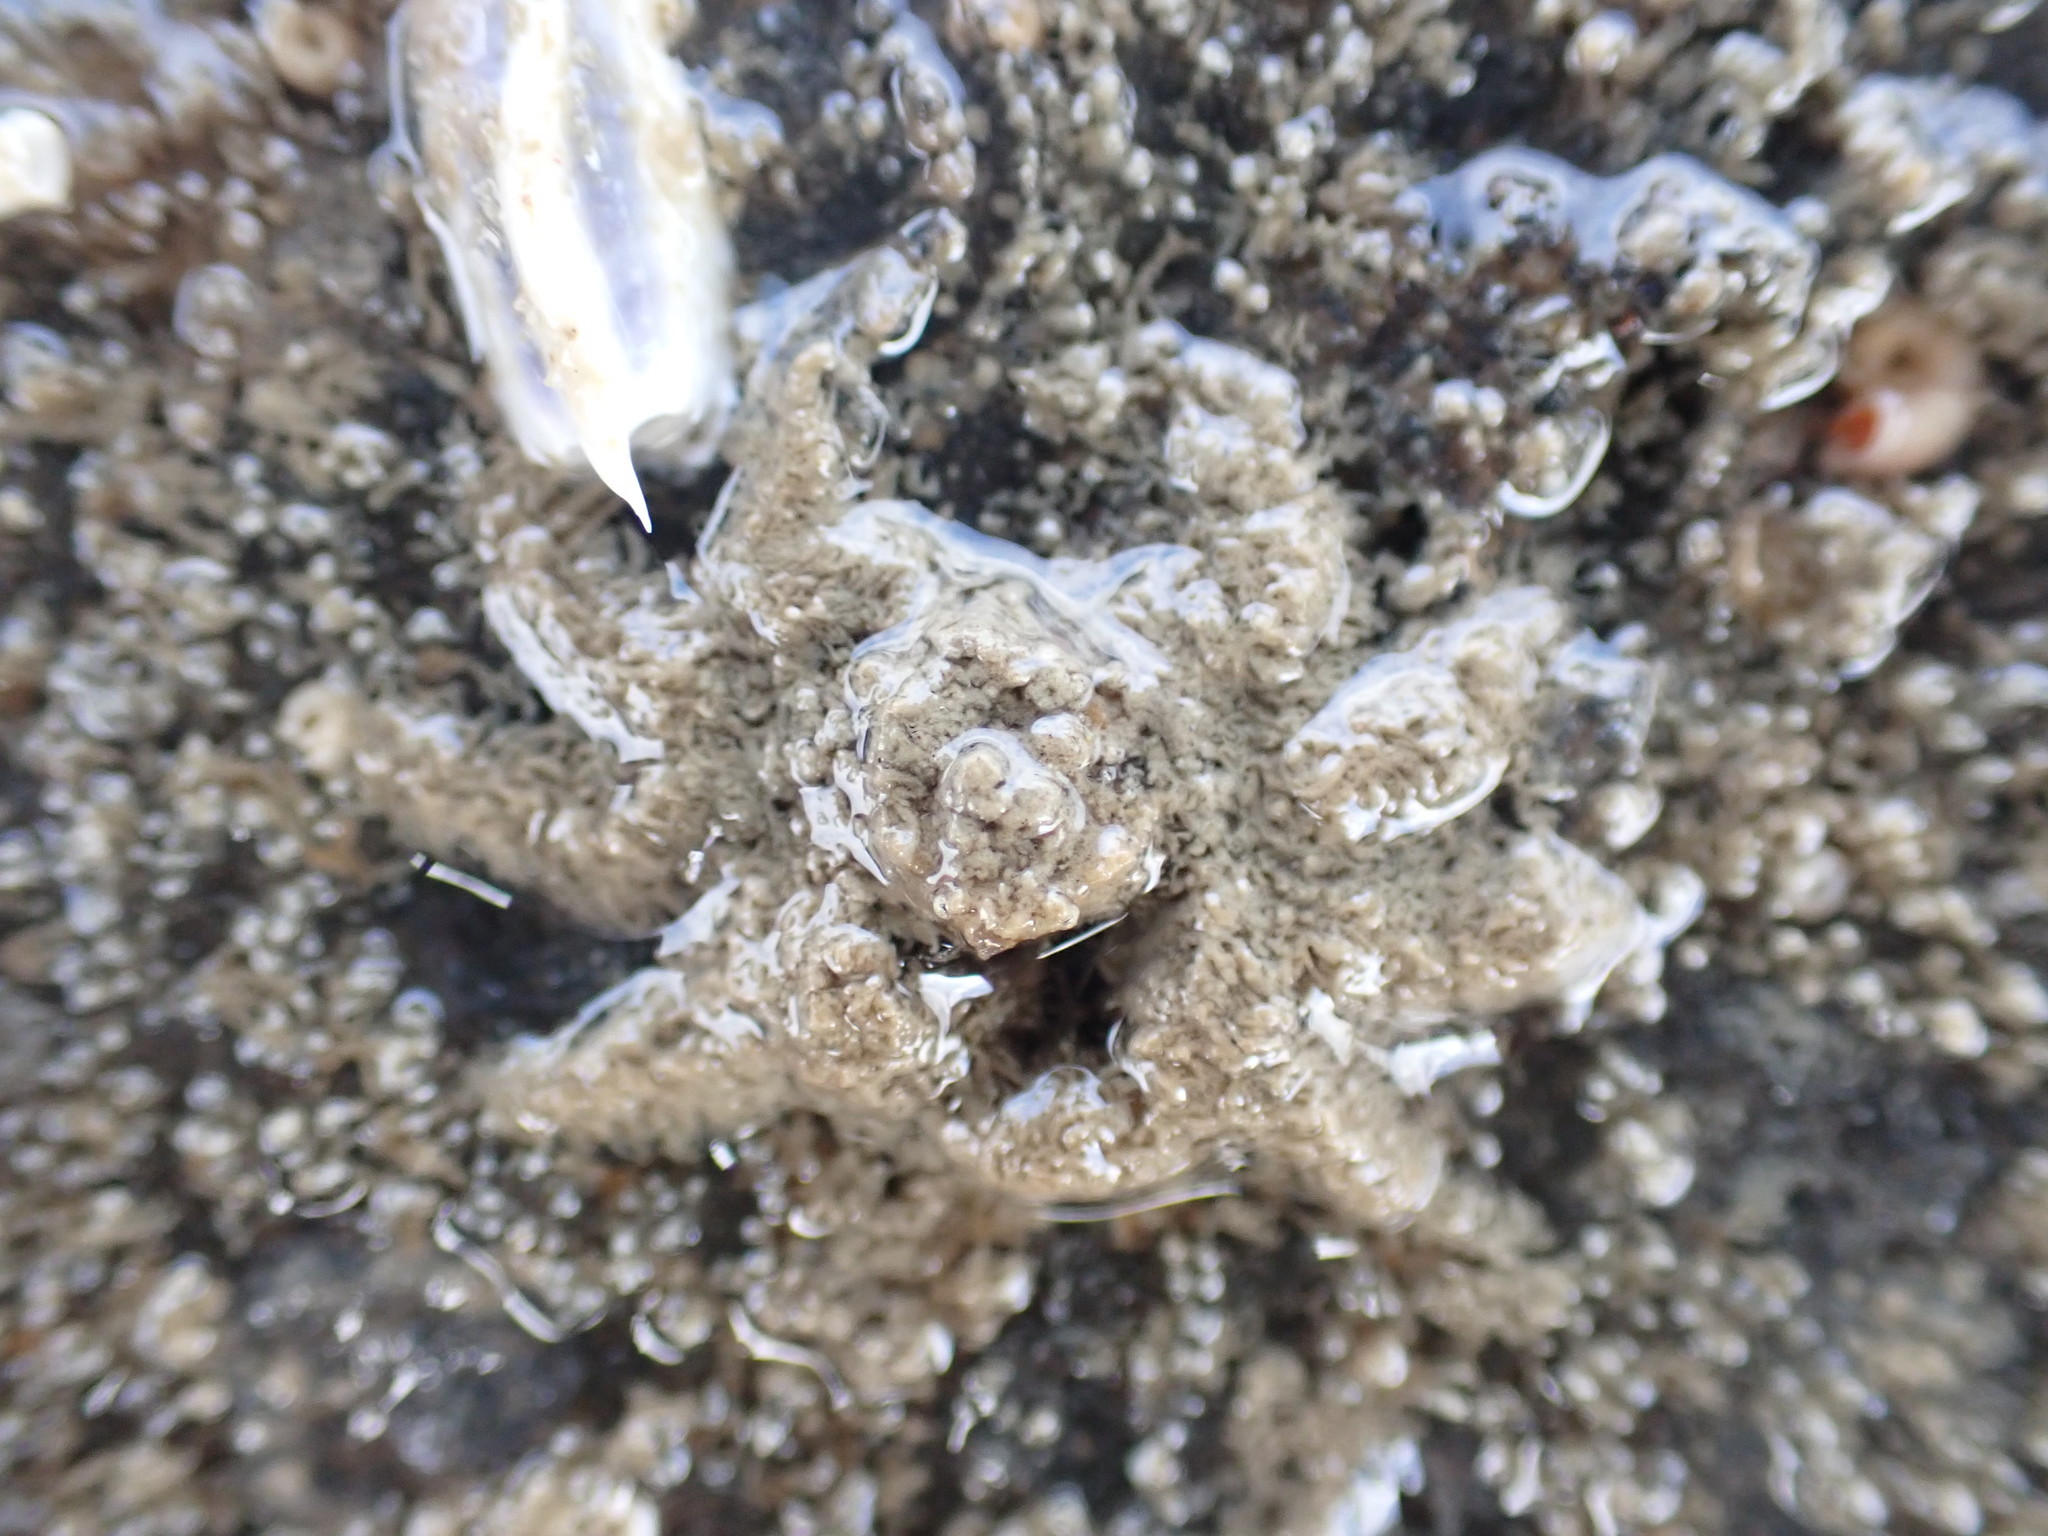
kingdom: Animalia
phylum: Arthropoda
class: Malacostraca
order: Decapoda
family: Hymenosomatidae
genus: Neohymenicus
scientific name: Neohymenicus pubescens
